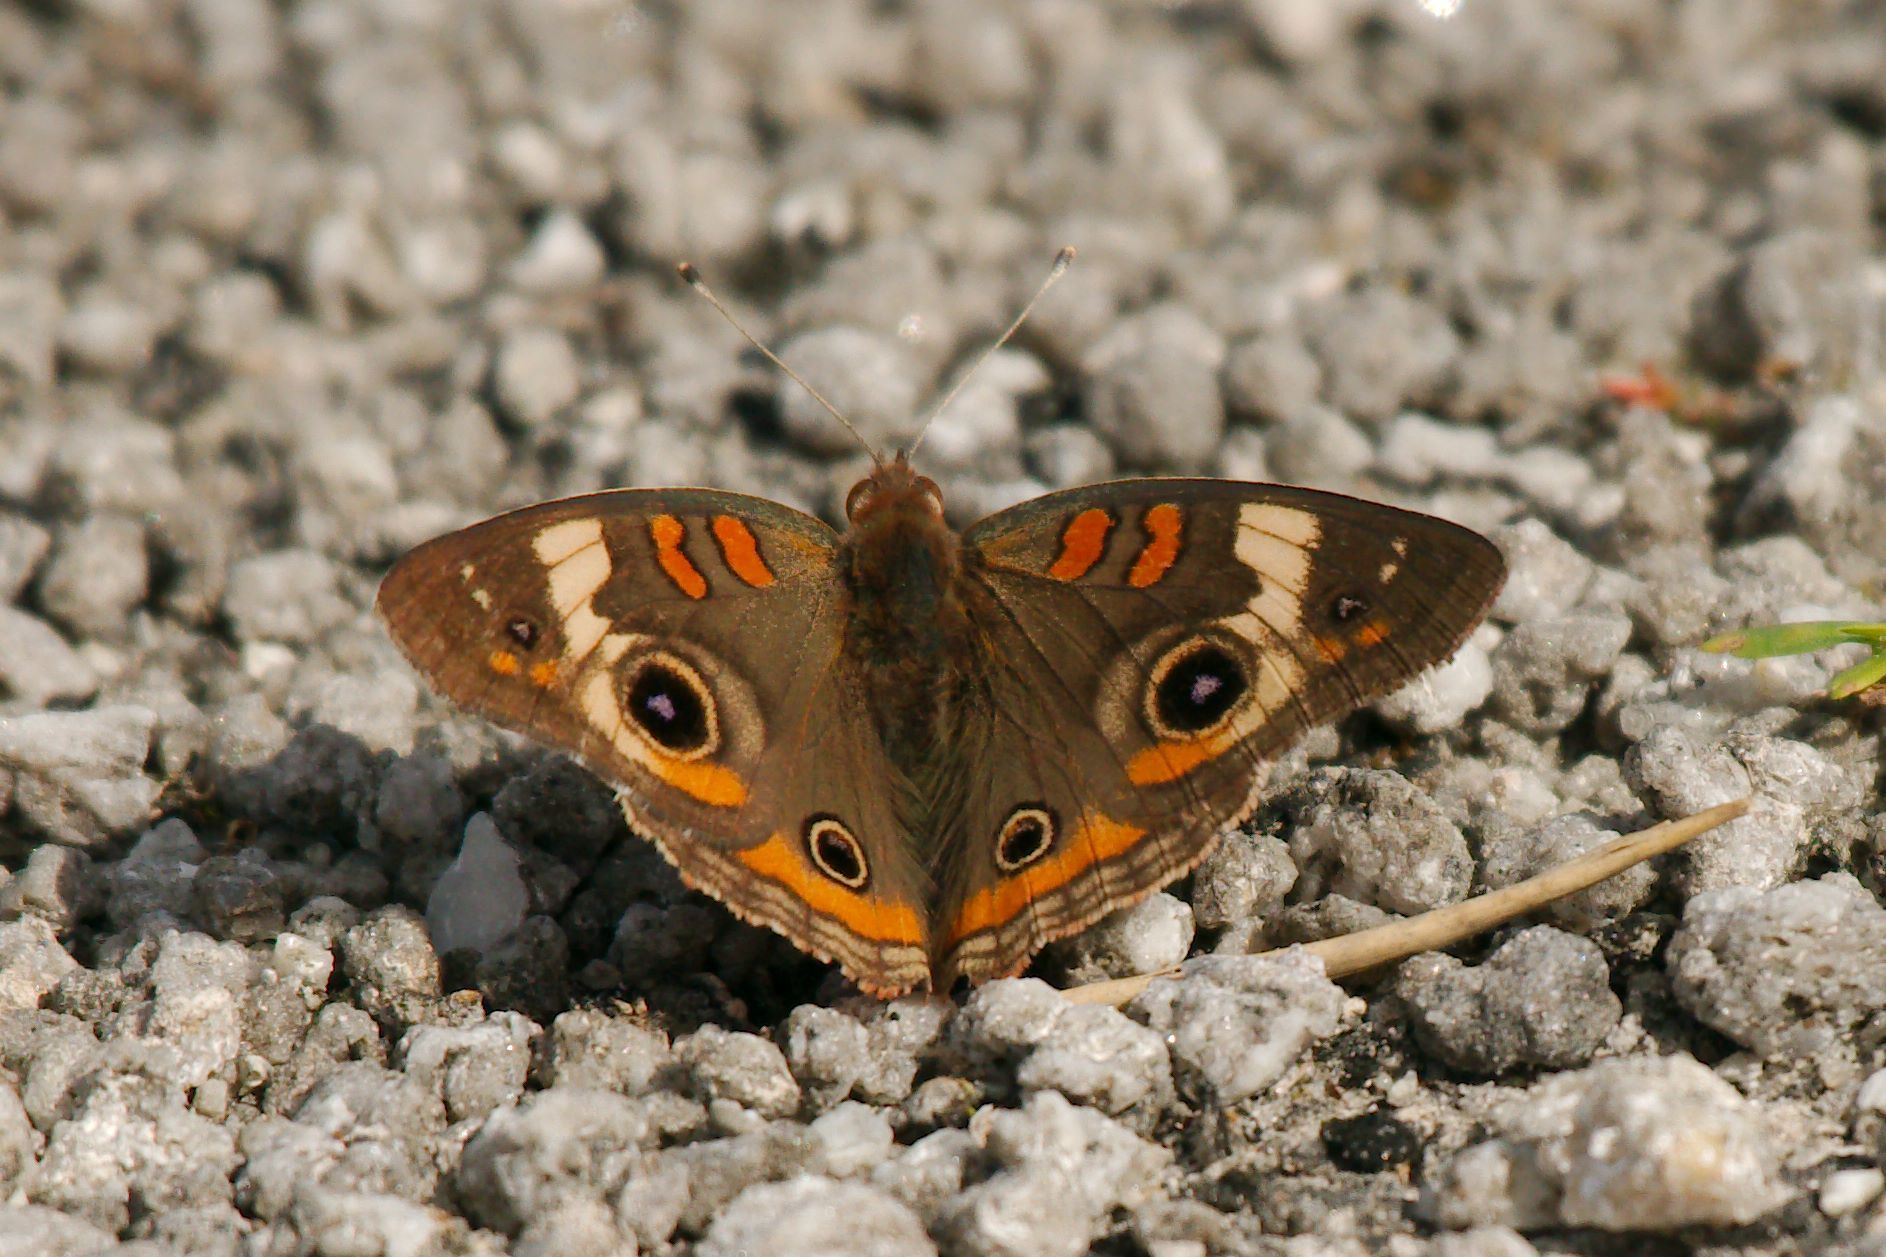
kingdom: Animalia
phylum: Arthropoda
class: Insecta
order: Lepidoptera
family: Nymphalidae
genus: Junonia
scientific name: Junonia coenia
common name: Common buckeye
